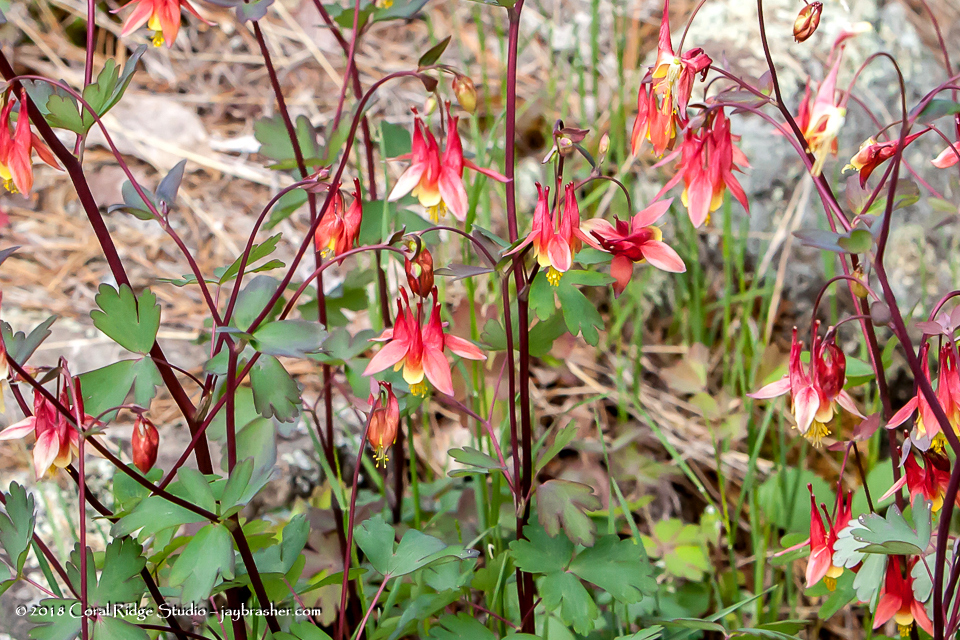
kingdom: Plantae
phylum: Tracheophyta
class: Magnoliopsida
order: Ranunculales
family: Ranunculaceae
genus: Aquilegia
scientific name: Aquilegia canadensis
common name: American columbine
